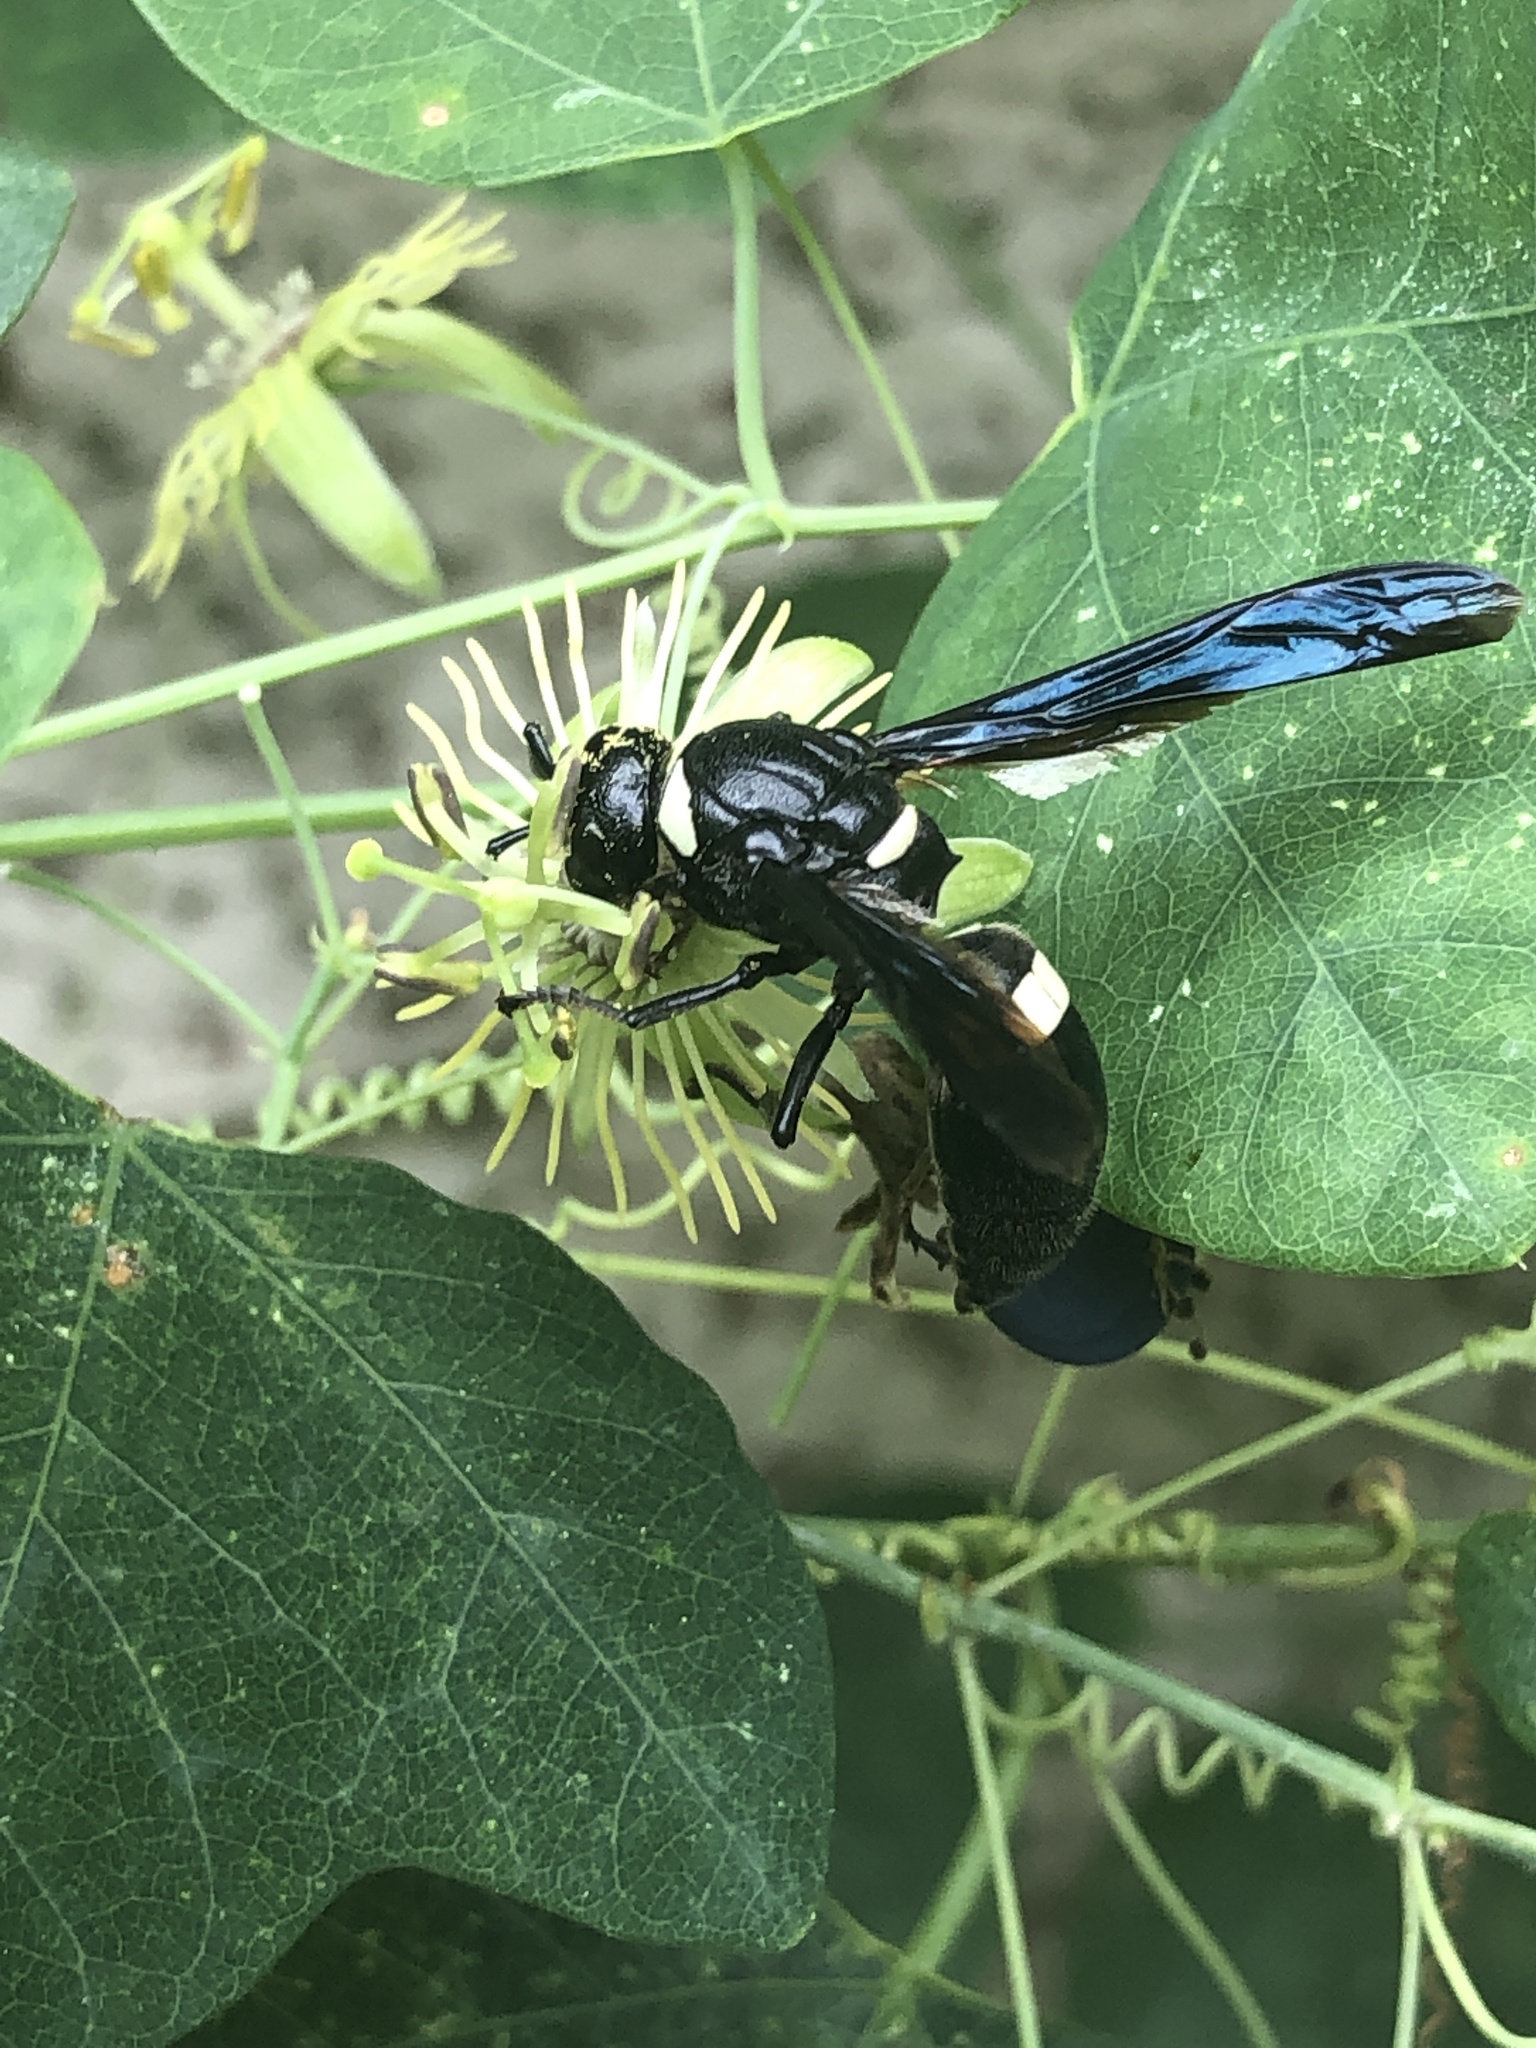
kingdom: Plantae
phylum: Tracheophyta
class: Magnoliopsida
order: Malpighiales
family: Passifloraceae
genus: Passiflora
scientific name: Passiflora lutea
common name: Yellow passionflower
